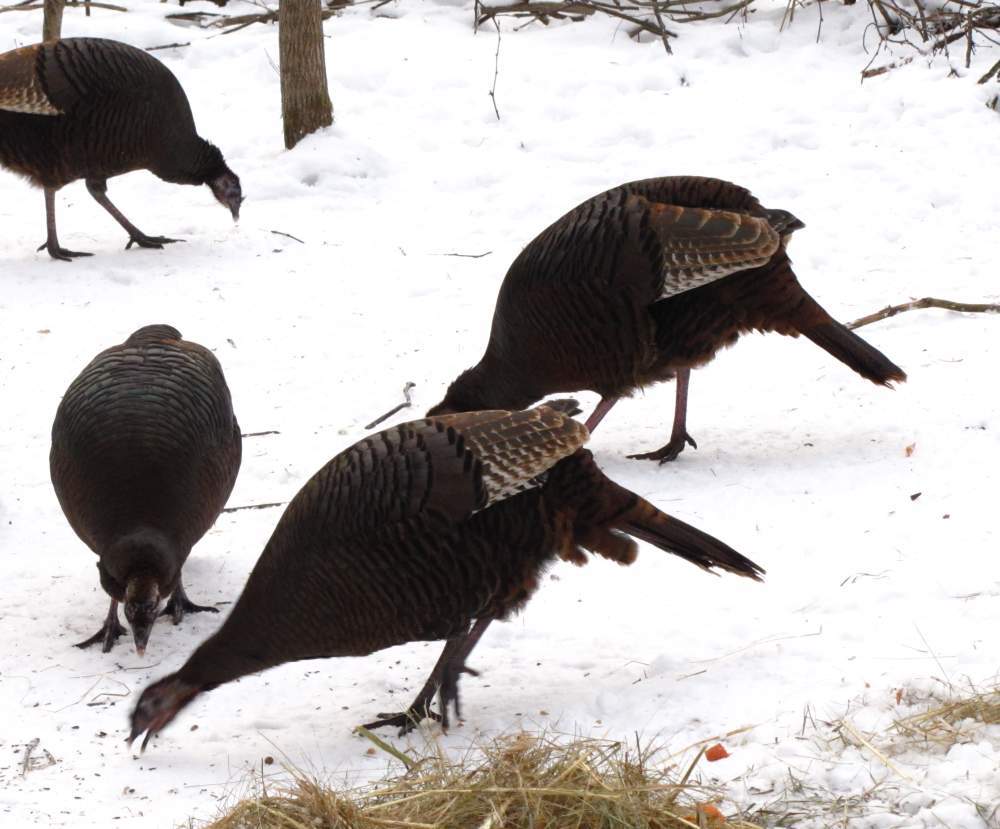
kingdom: Animalia
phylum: Chordata
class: Aves
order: Galliformes
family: Phasianidae
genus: Meleagris
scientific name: Meleagris gallopavo
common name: Wild turkey
